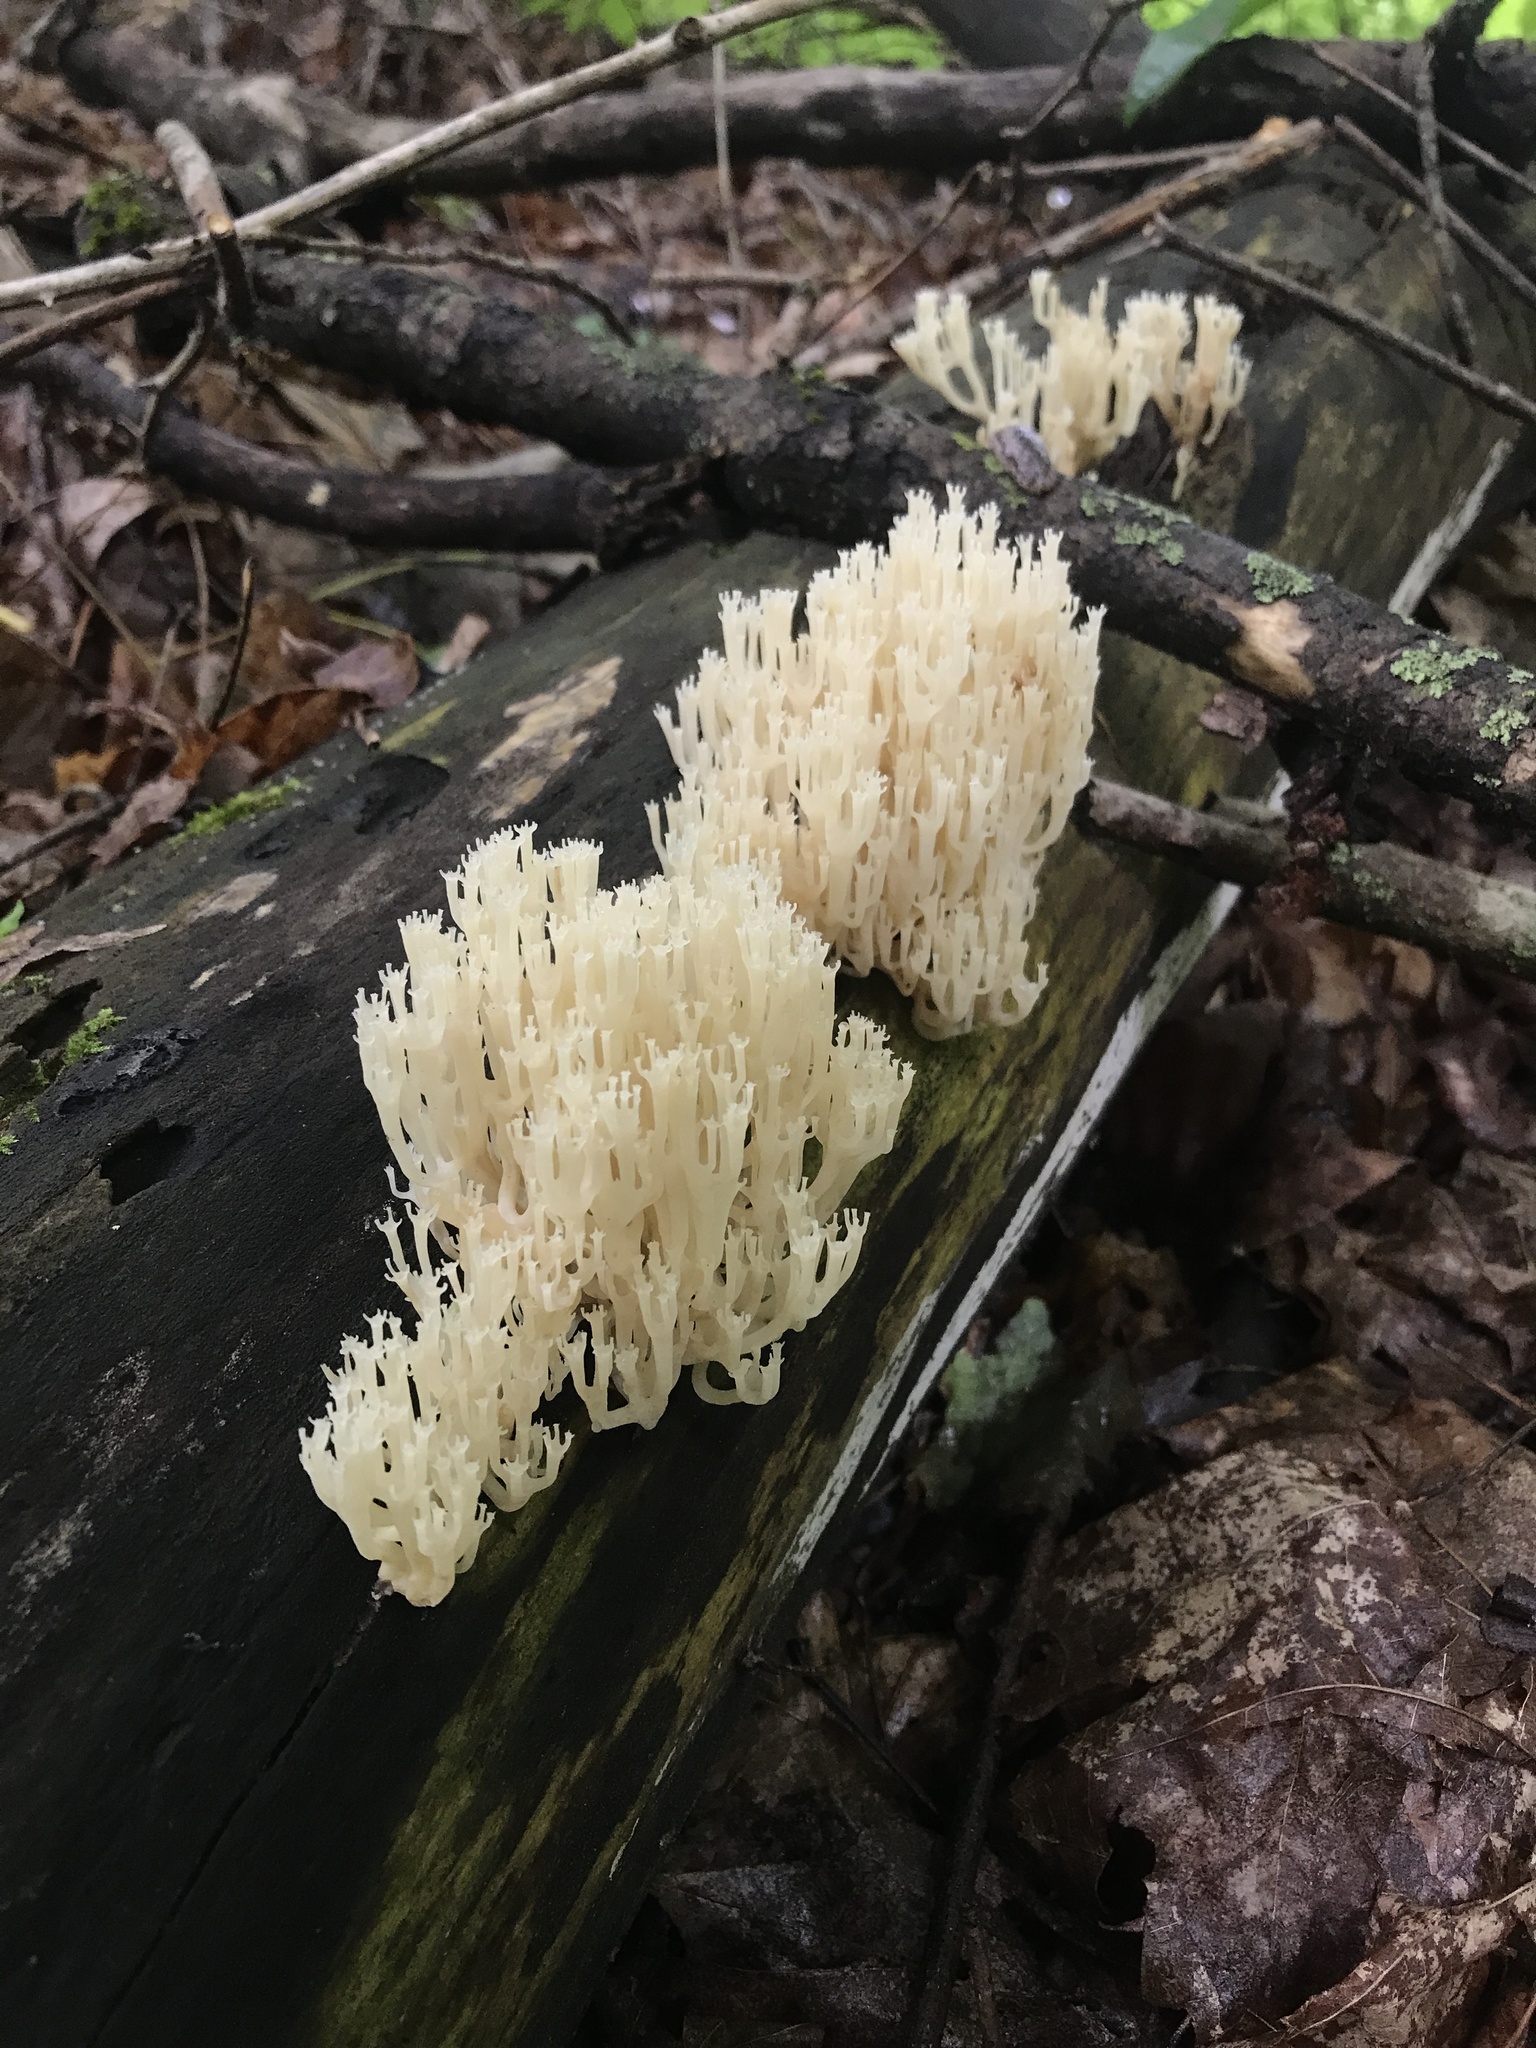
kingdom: Fungi
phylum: Basidiomycota
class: Agaricomycetes
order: Russulales
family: Auriscalpiaceae
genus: Artomyces
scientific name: Artomyces pyxidatus
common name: Crown-tipped coral fungus
